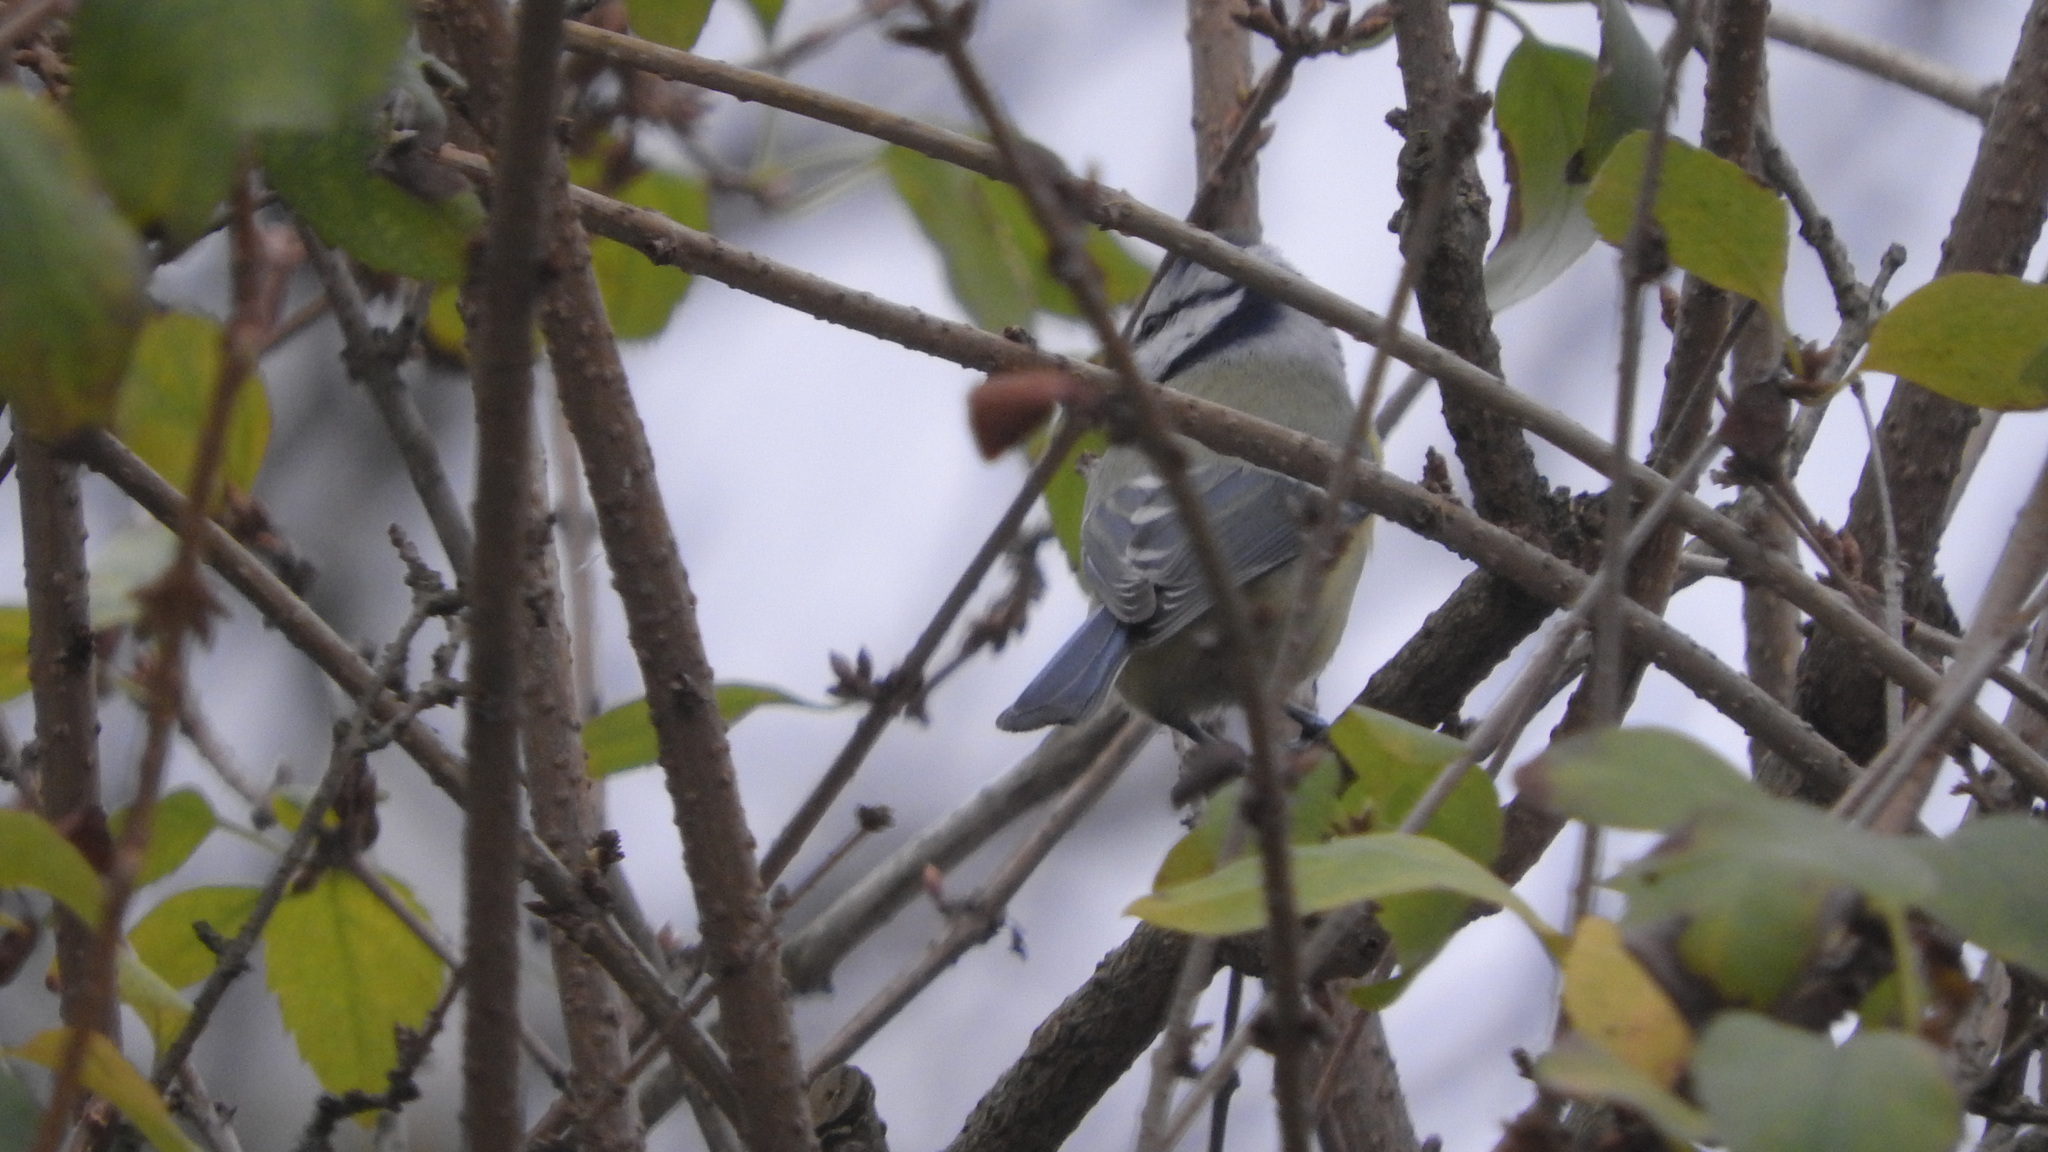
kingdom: Animalia
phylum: Chordata
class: Aves
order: Passeriformes
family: Paridae
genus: Cyanistes
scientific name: Cyanistes caeruleus
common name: Eurasian blue tit
